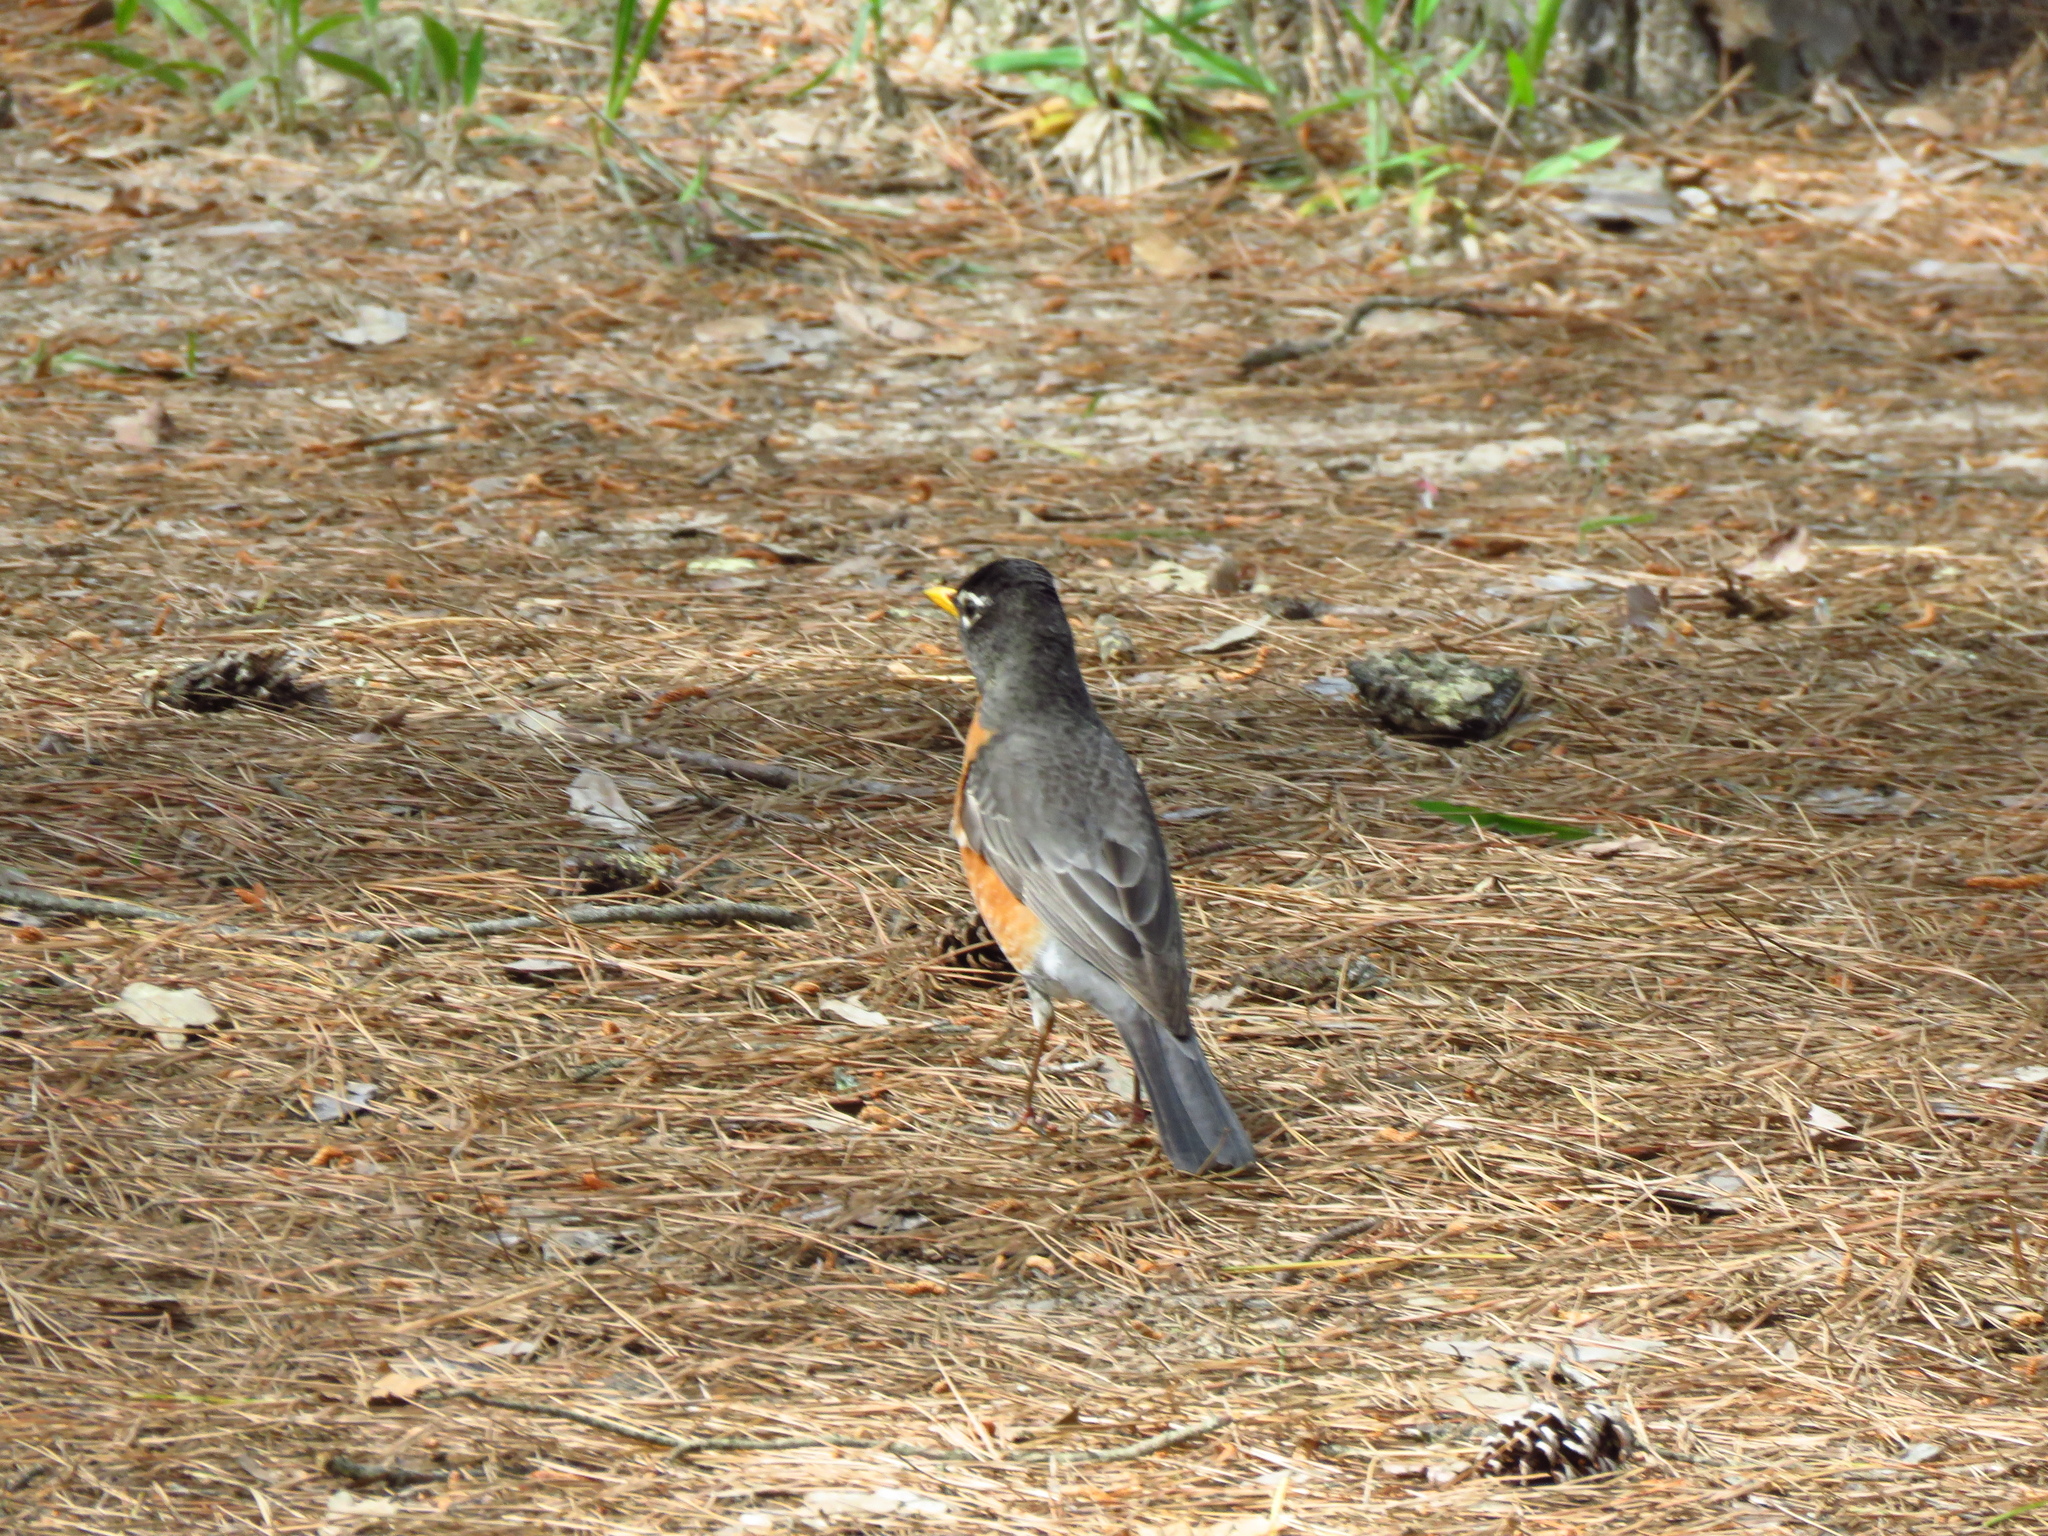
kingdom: Animalia
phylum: Chordata
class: Aves
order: Passeriformes
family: Turdidae
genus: Turdus
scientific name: Turdus migratorius
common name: American robin
